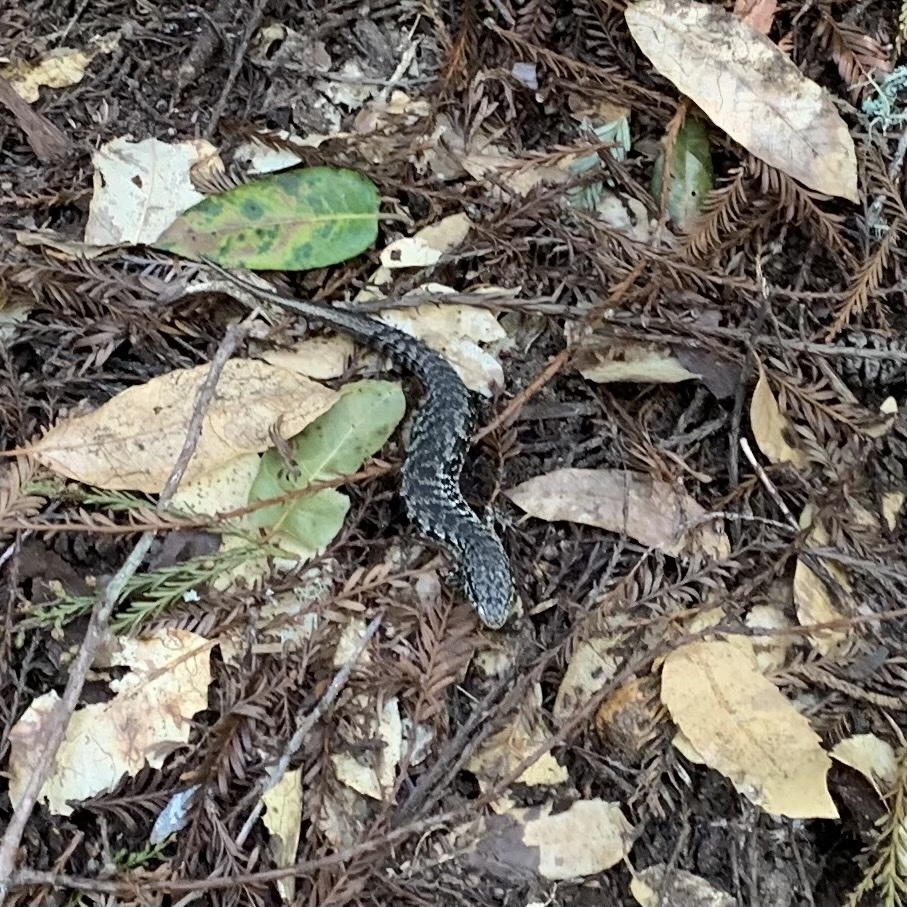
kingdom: Animalia
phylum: Chordata
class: Squamata
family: Anguidae
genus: Elgaria
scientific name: Elgaria coerulea
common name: Northern alligator lizard
